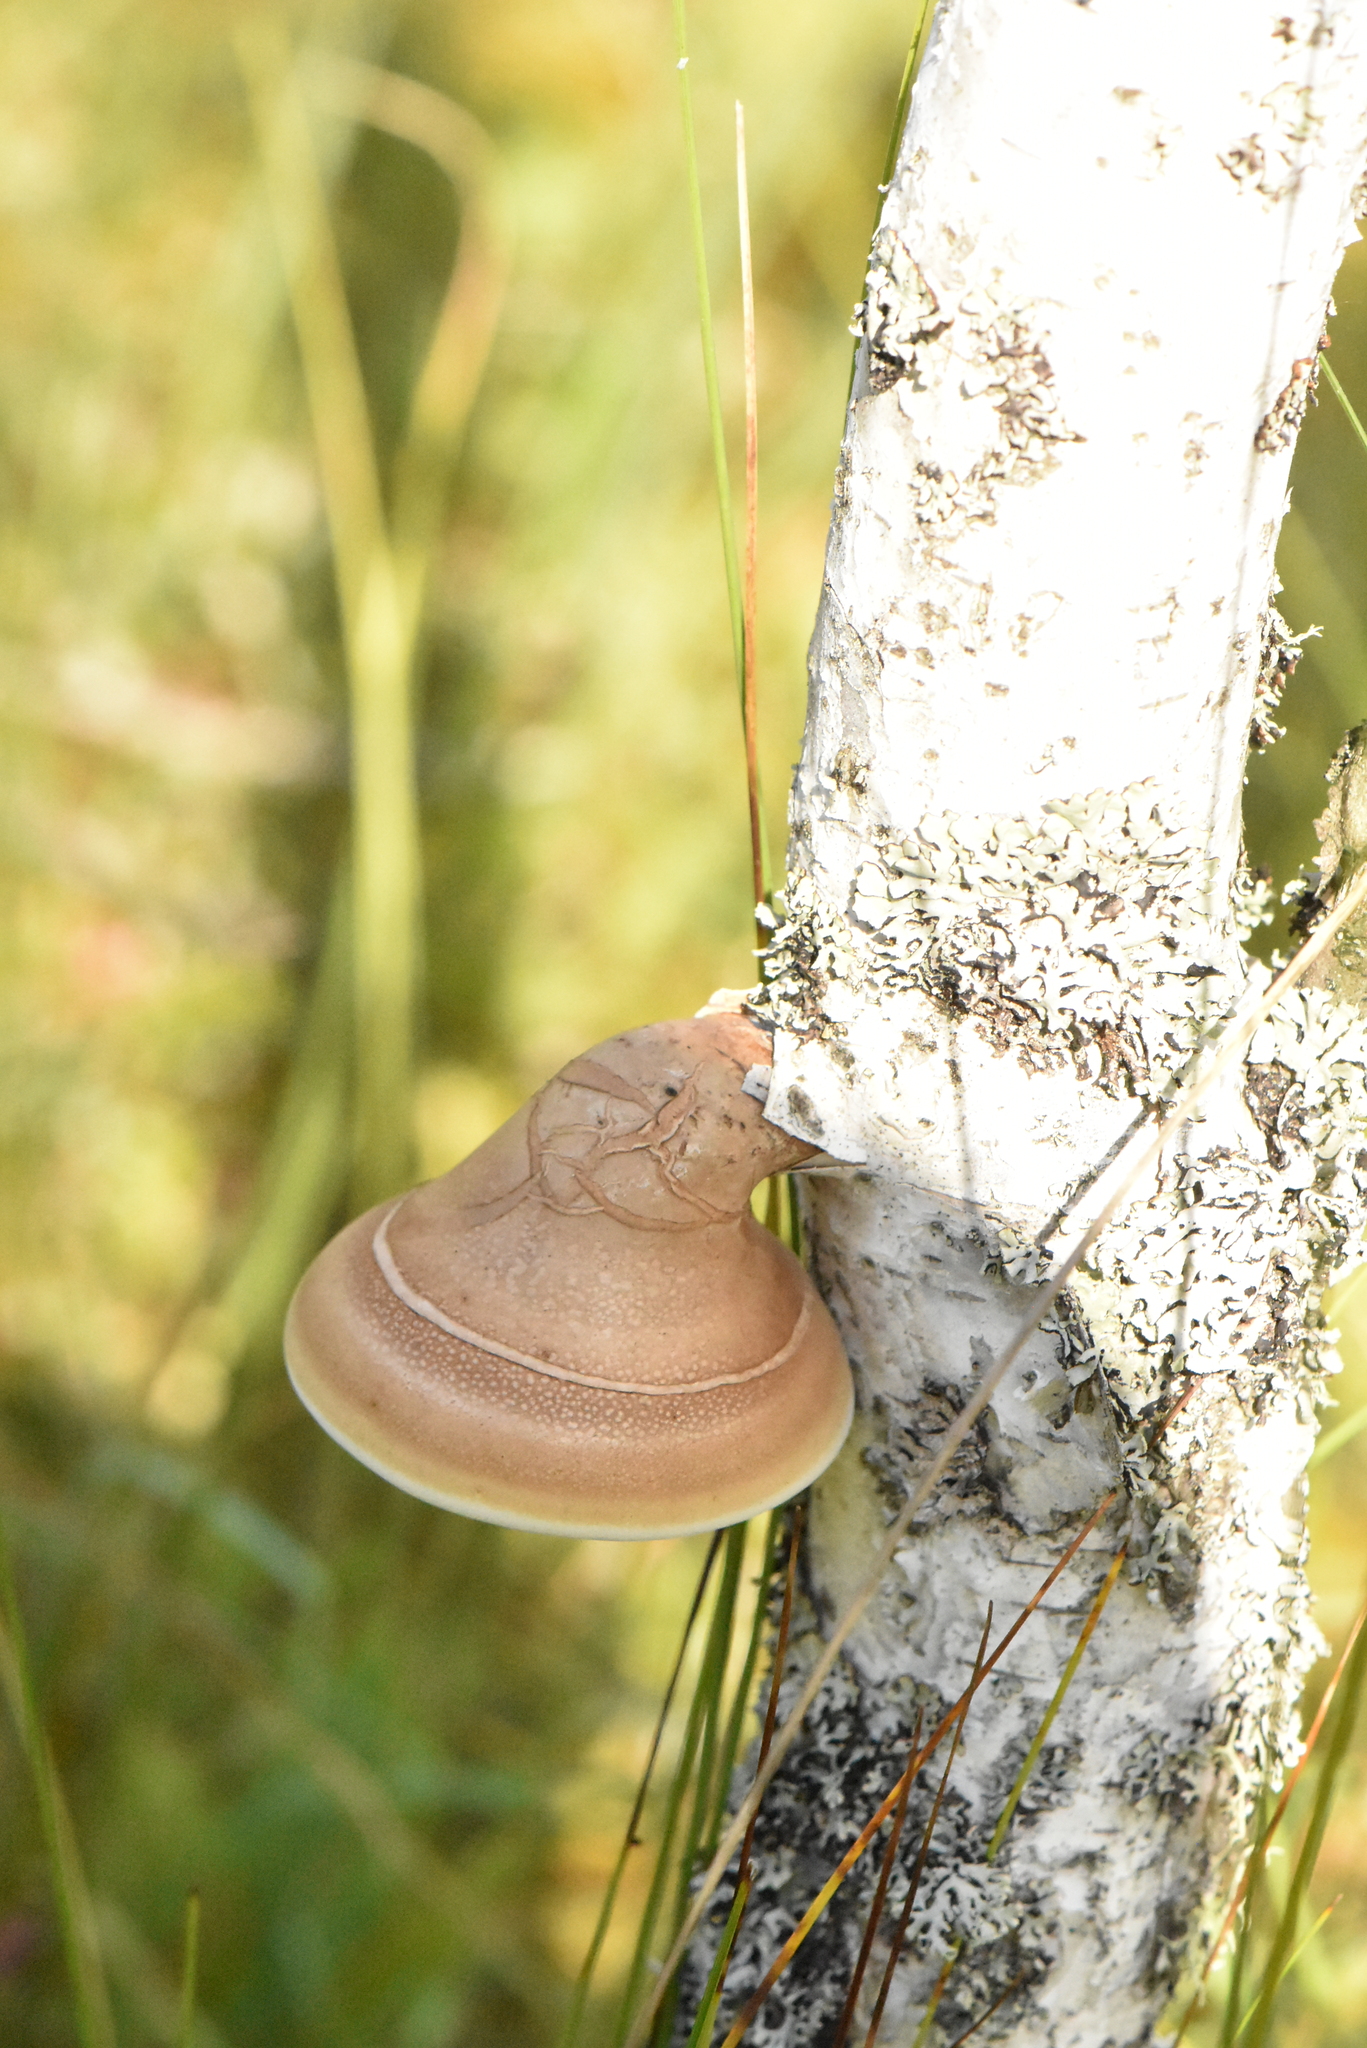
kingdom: Fungi
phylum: Basidiomycota
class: Agaricomycetes
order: Polyporales
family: Fomitopsidaceae
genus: Fomitopsis
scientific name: Fomitopsis betulina
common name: Birch polypore
